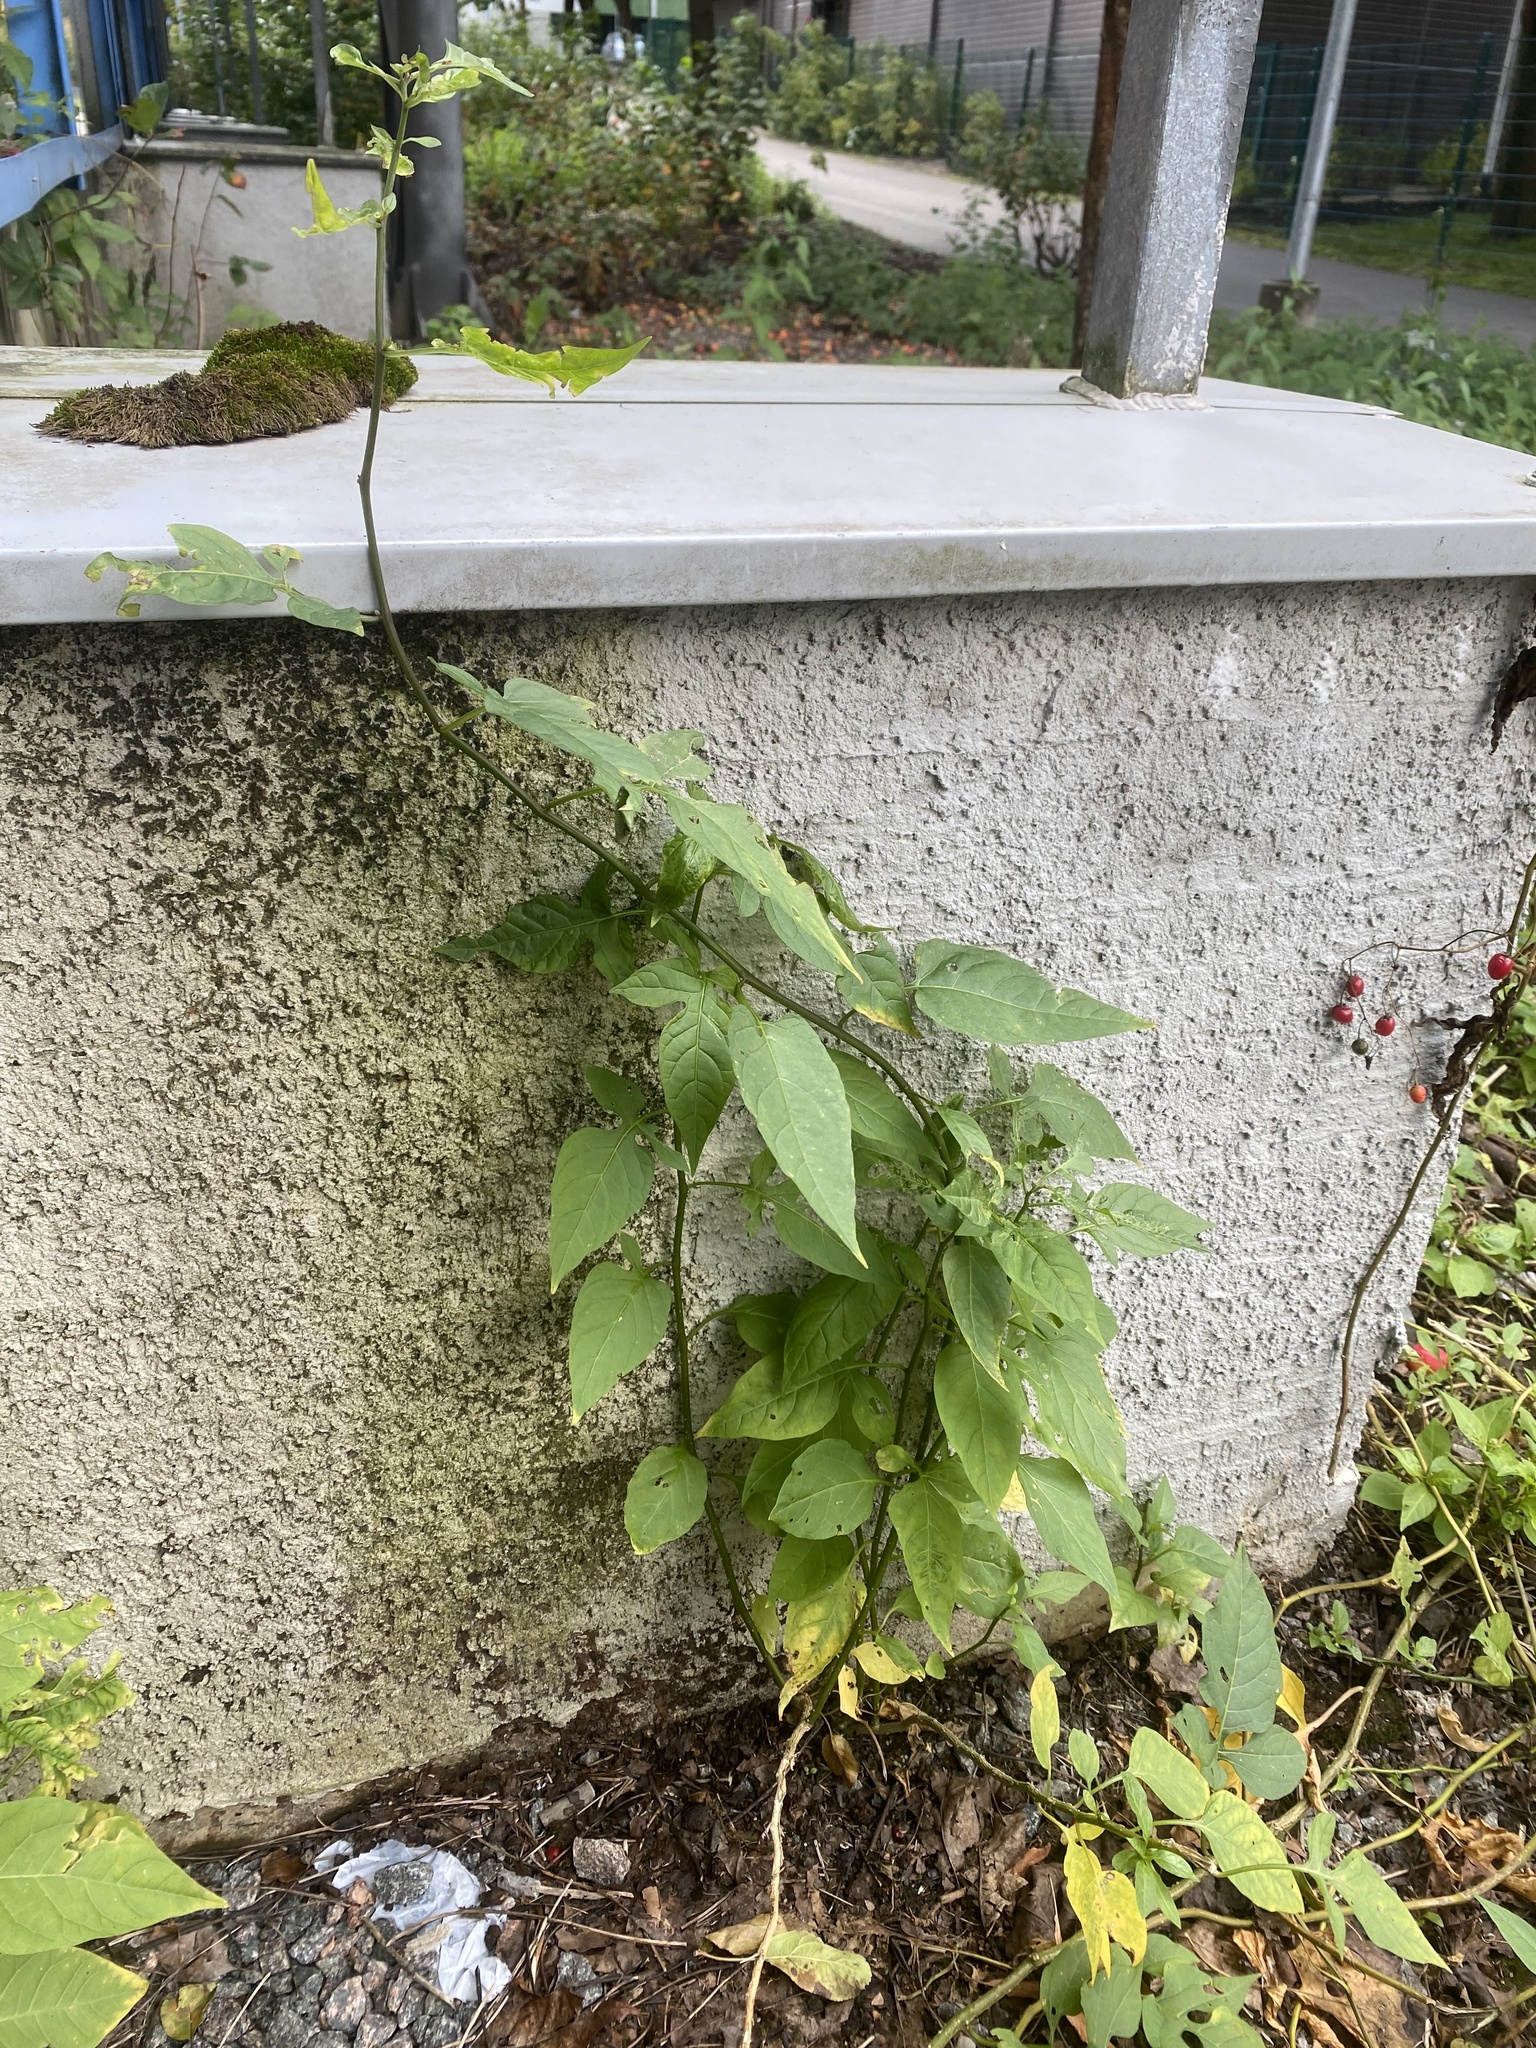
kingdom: Plantae
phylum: Tracheophyta
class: Magnoliopsida
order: Solanales
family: Solanaceae
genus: Solanum
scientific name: Solanum dulcamara
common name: Climbing nightshade
